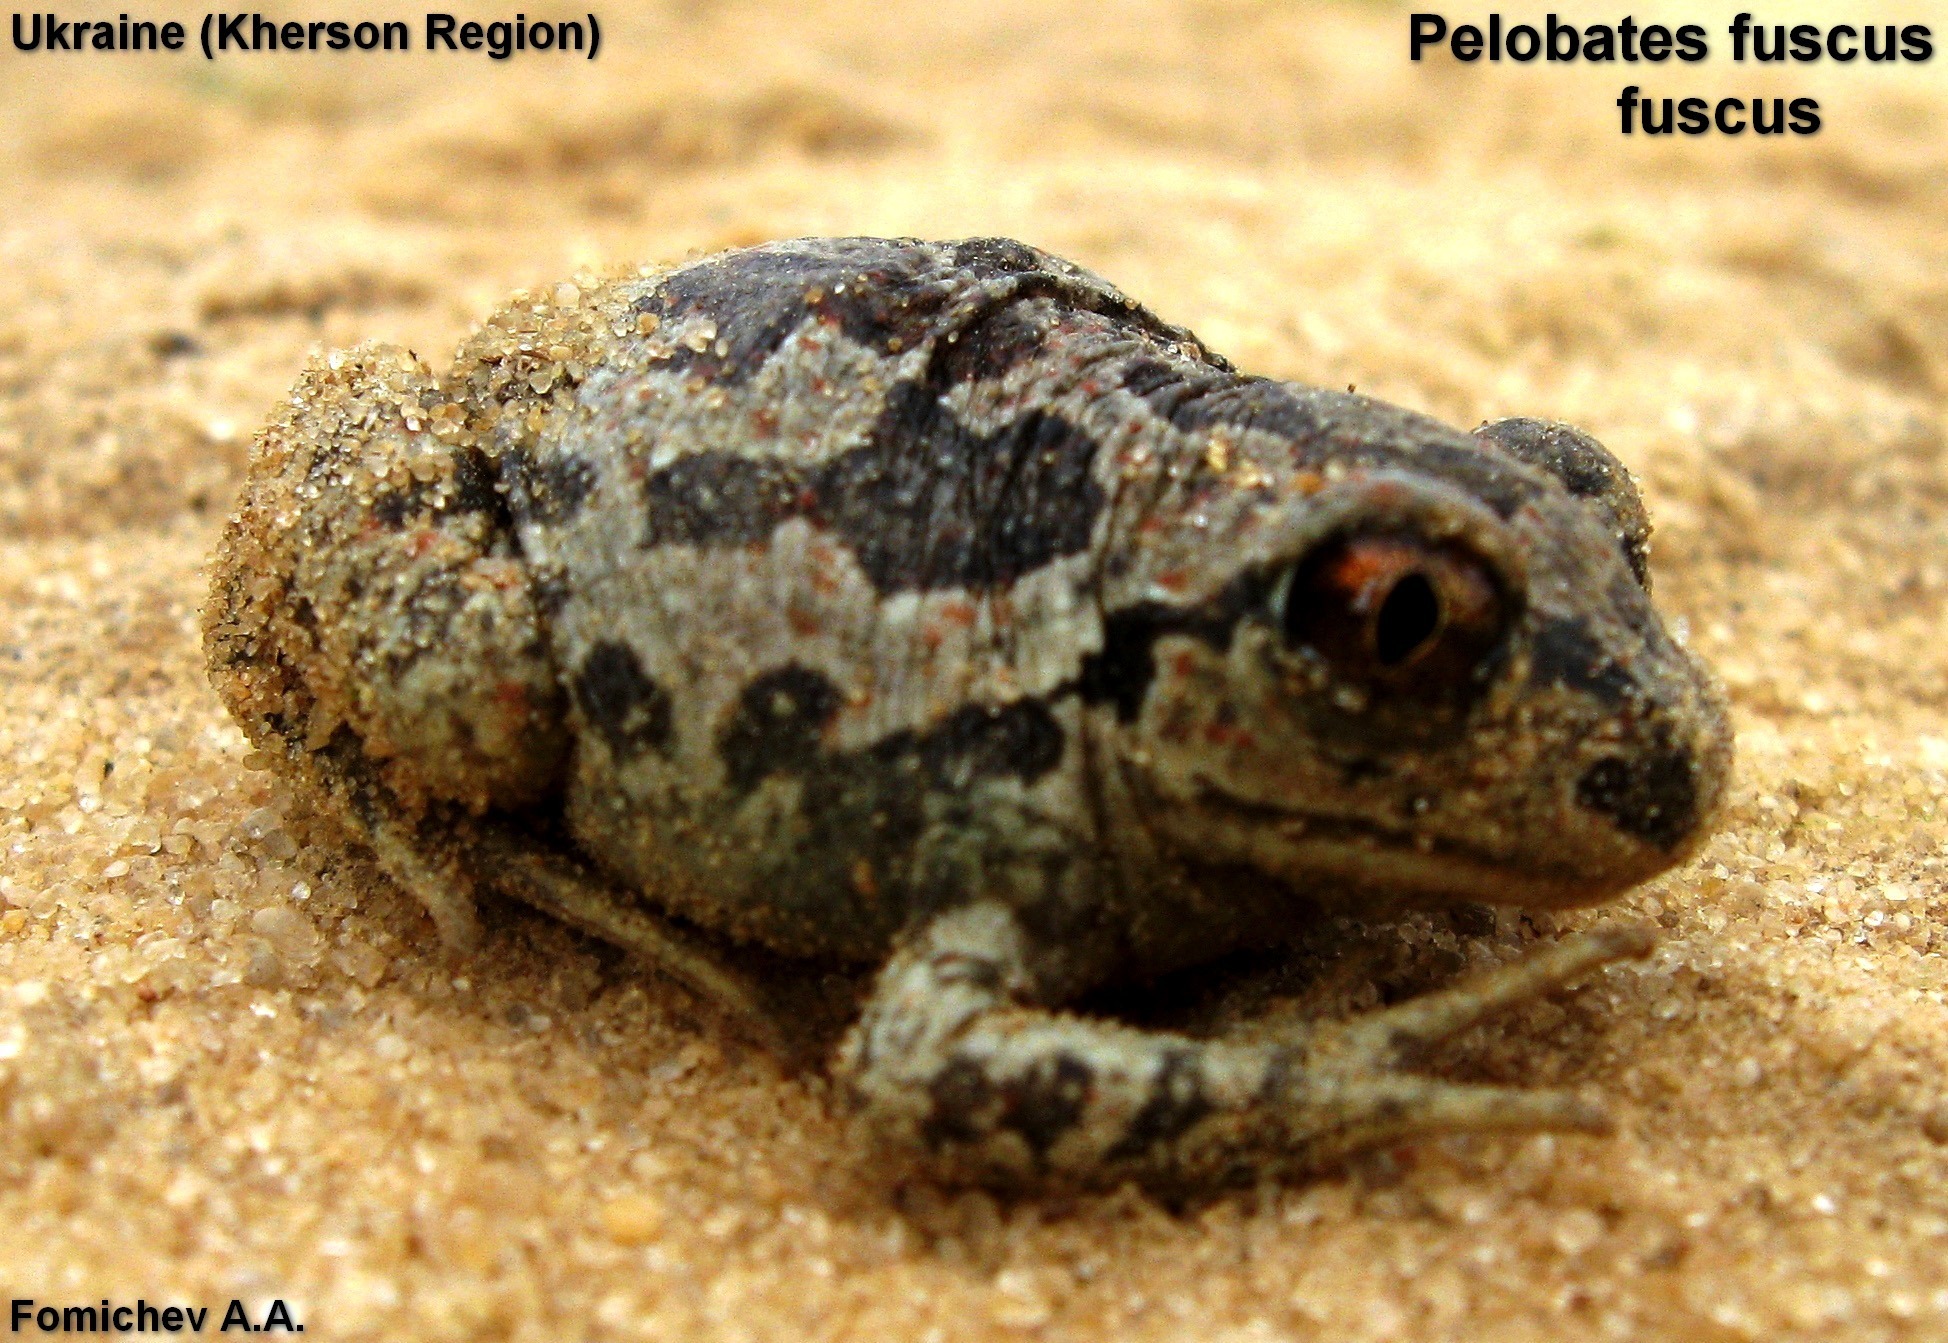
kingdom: Animalia
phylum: Chordata
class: Amphibia
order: Anura
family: Pelobatidae
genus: Pelobates
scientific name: Pelobates fuscus
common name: Common eurasian spadefoot toad
